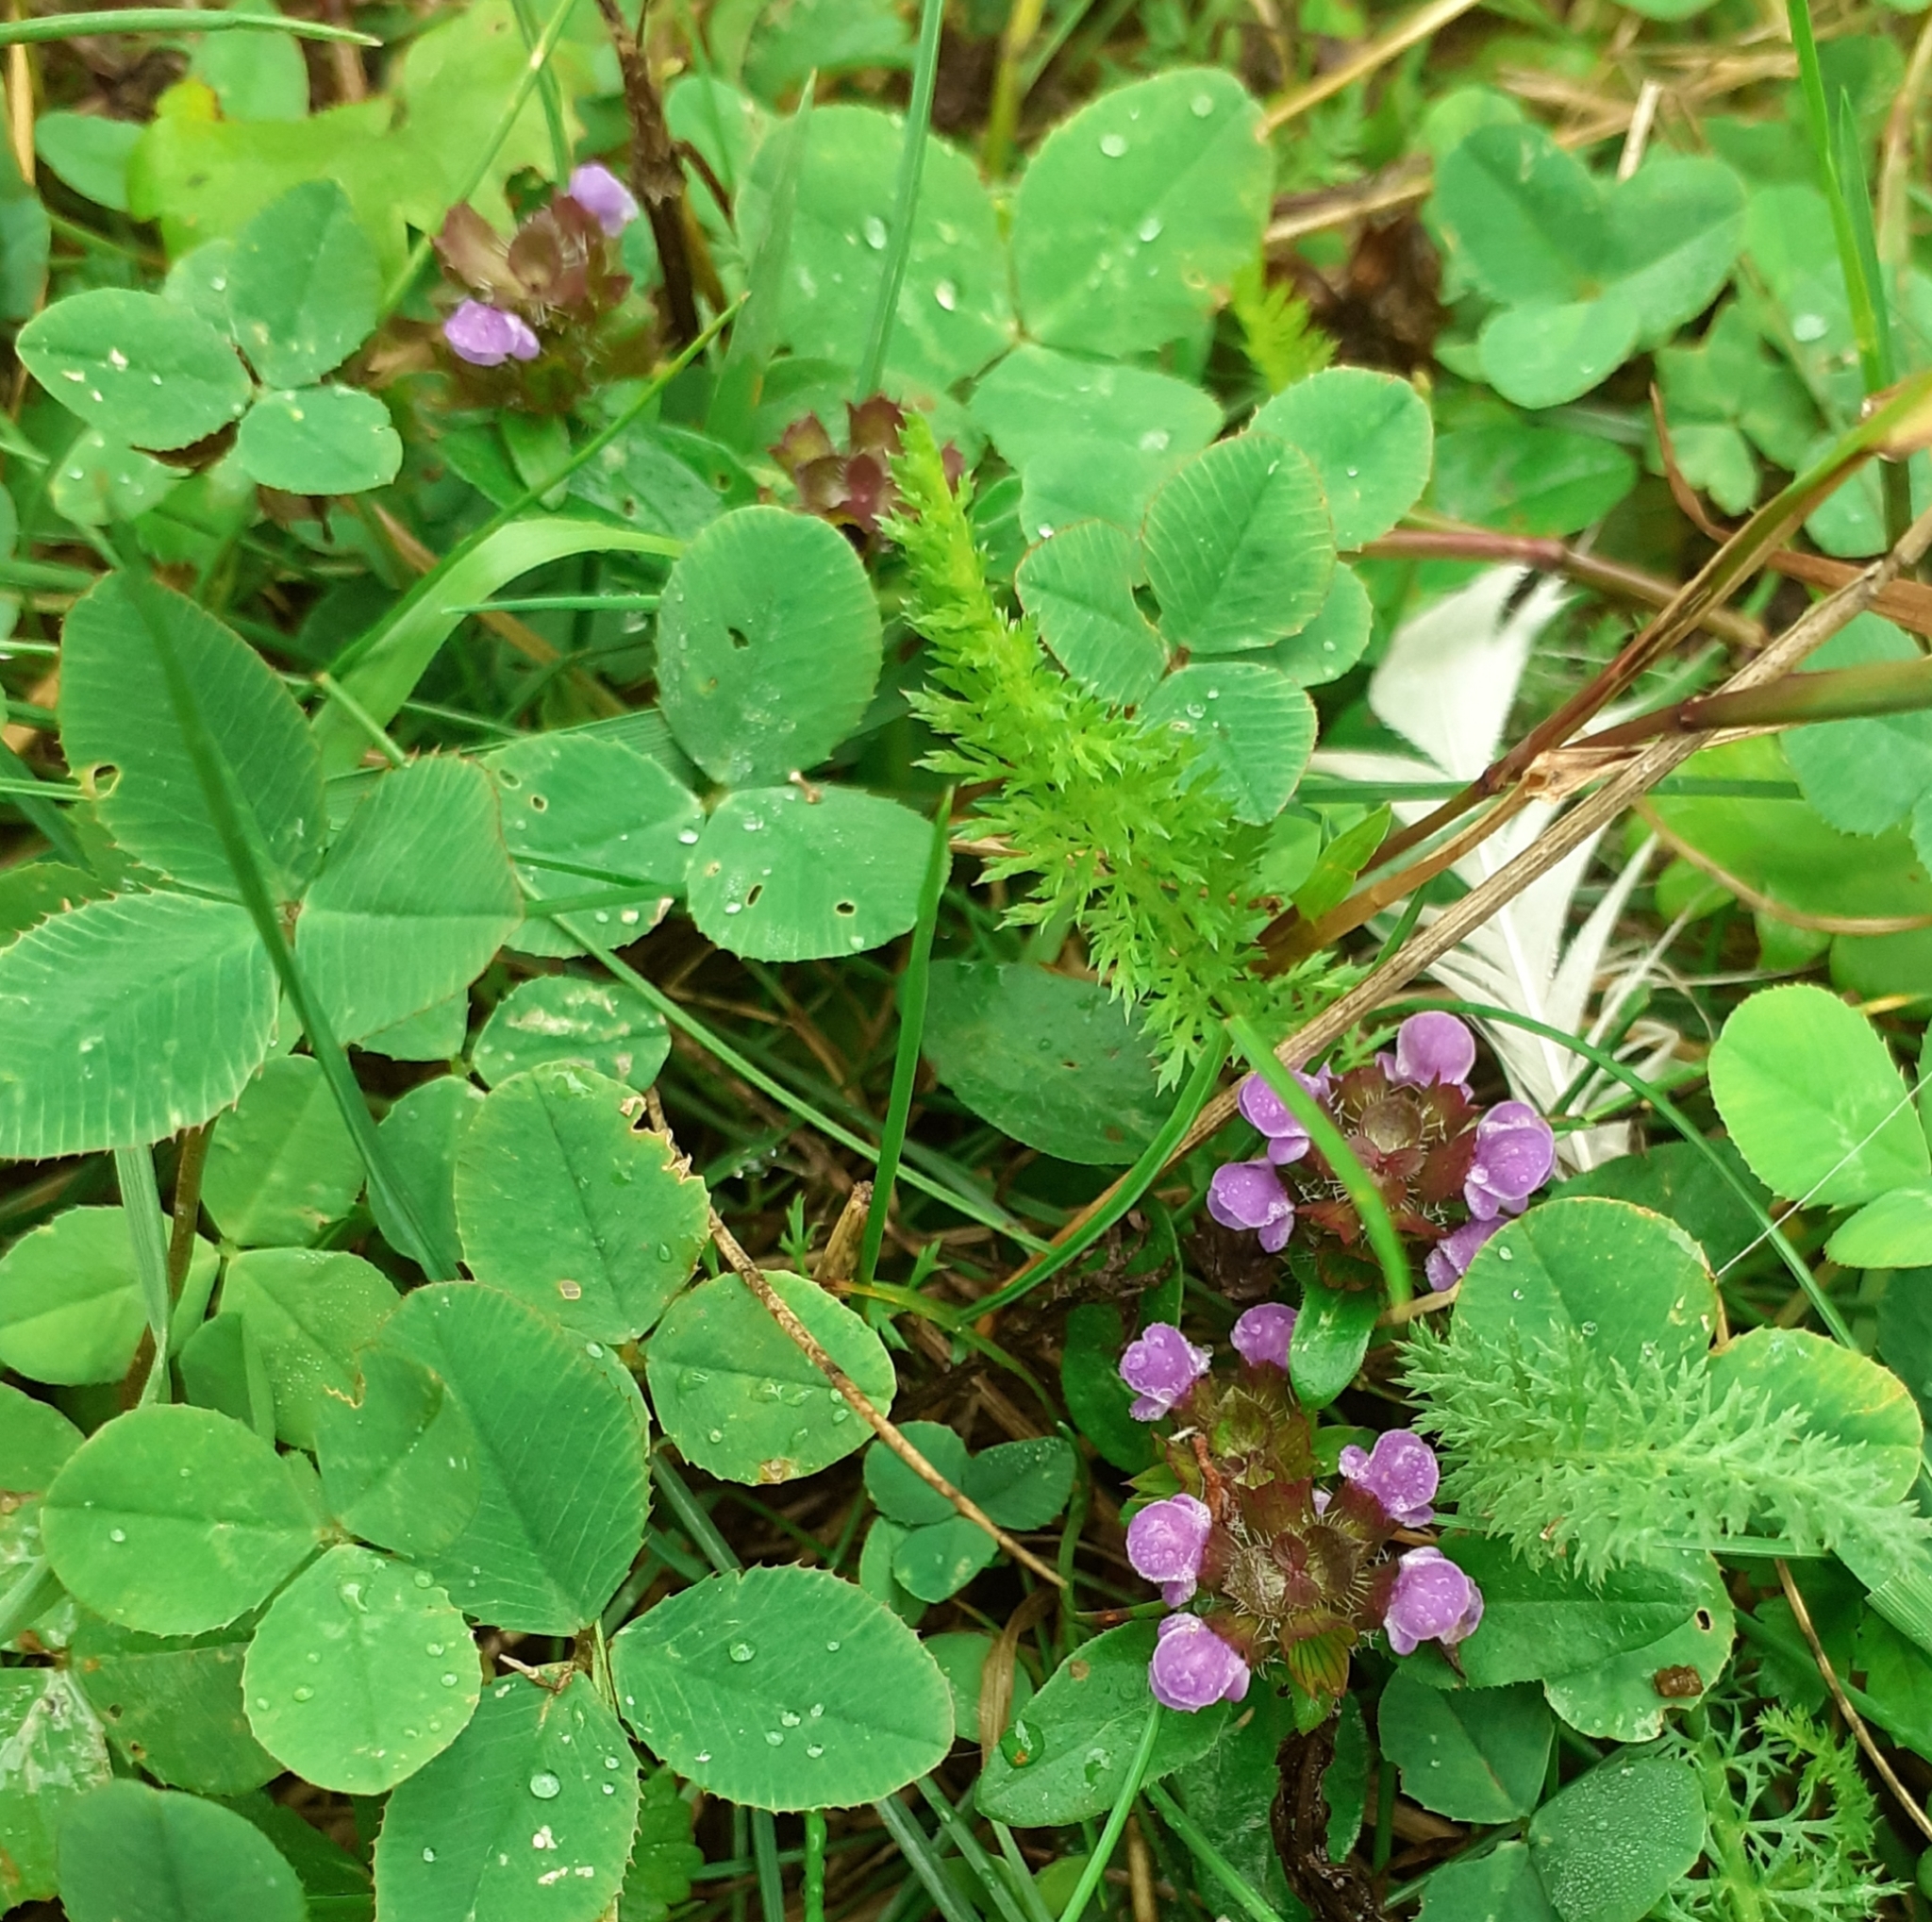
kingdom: Plantae
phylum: Tracheophyta
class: Magnoliopsida
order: Lamiales
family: Lamiaceae
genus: Prunella
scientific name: Prunella vulgaris
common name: Heal-all
